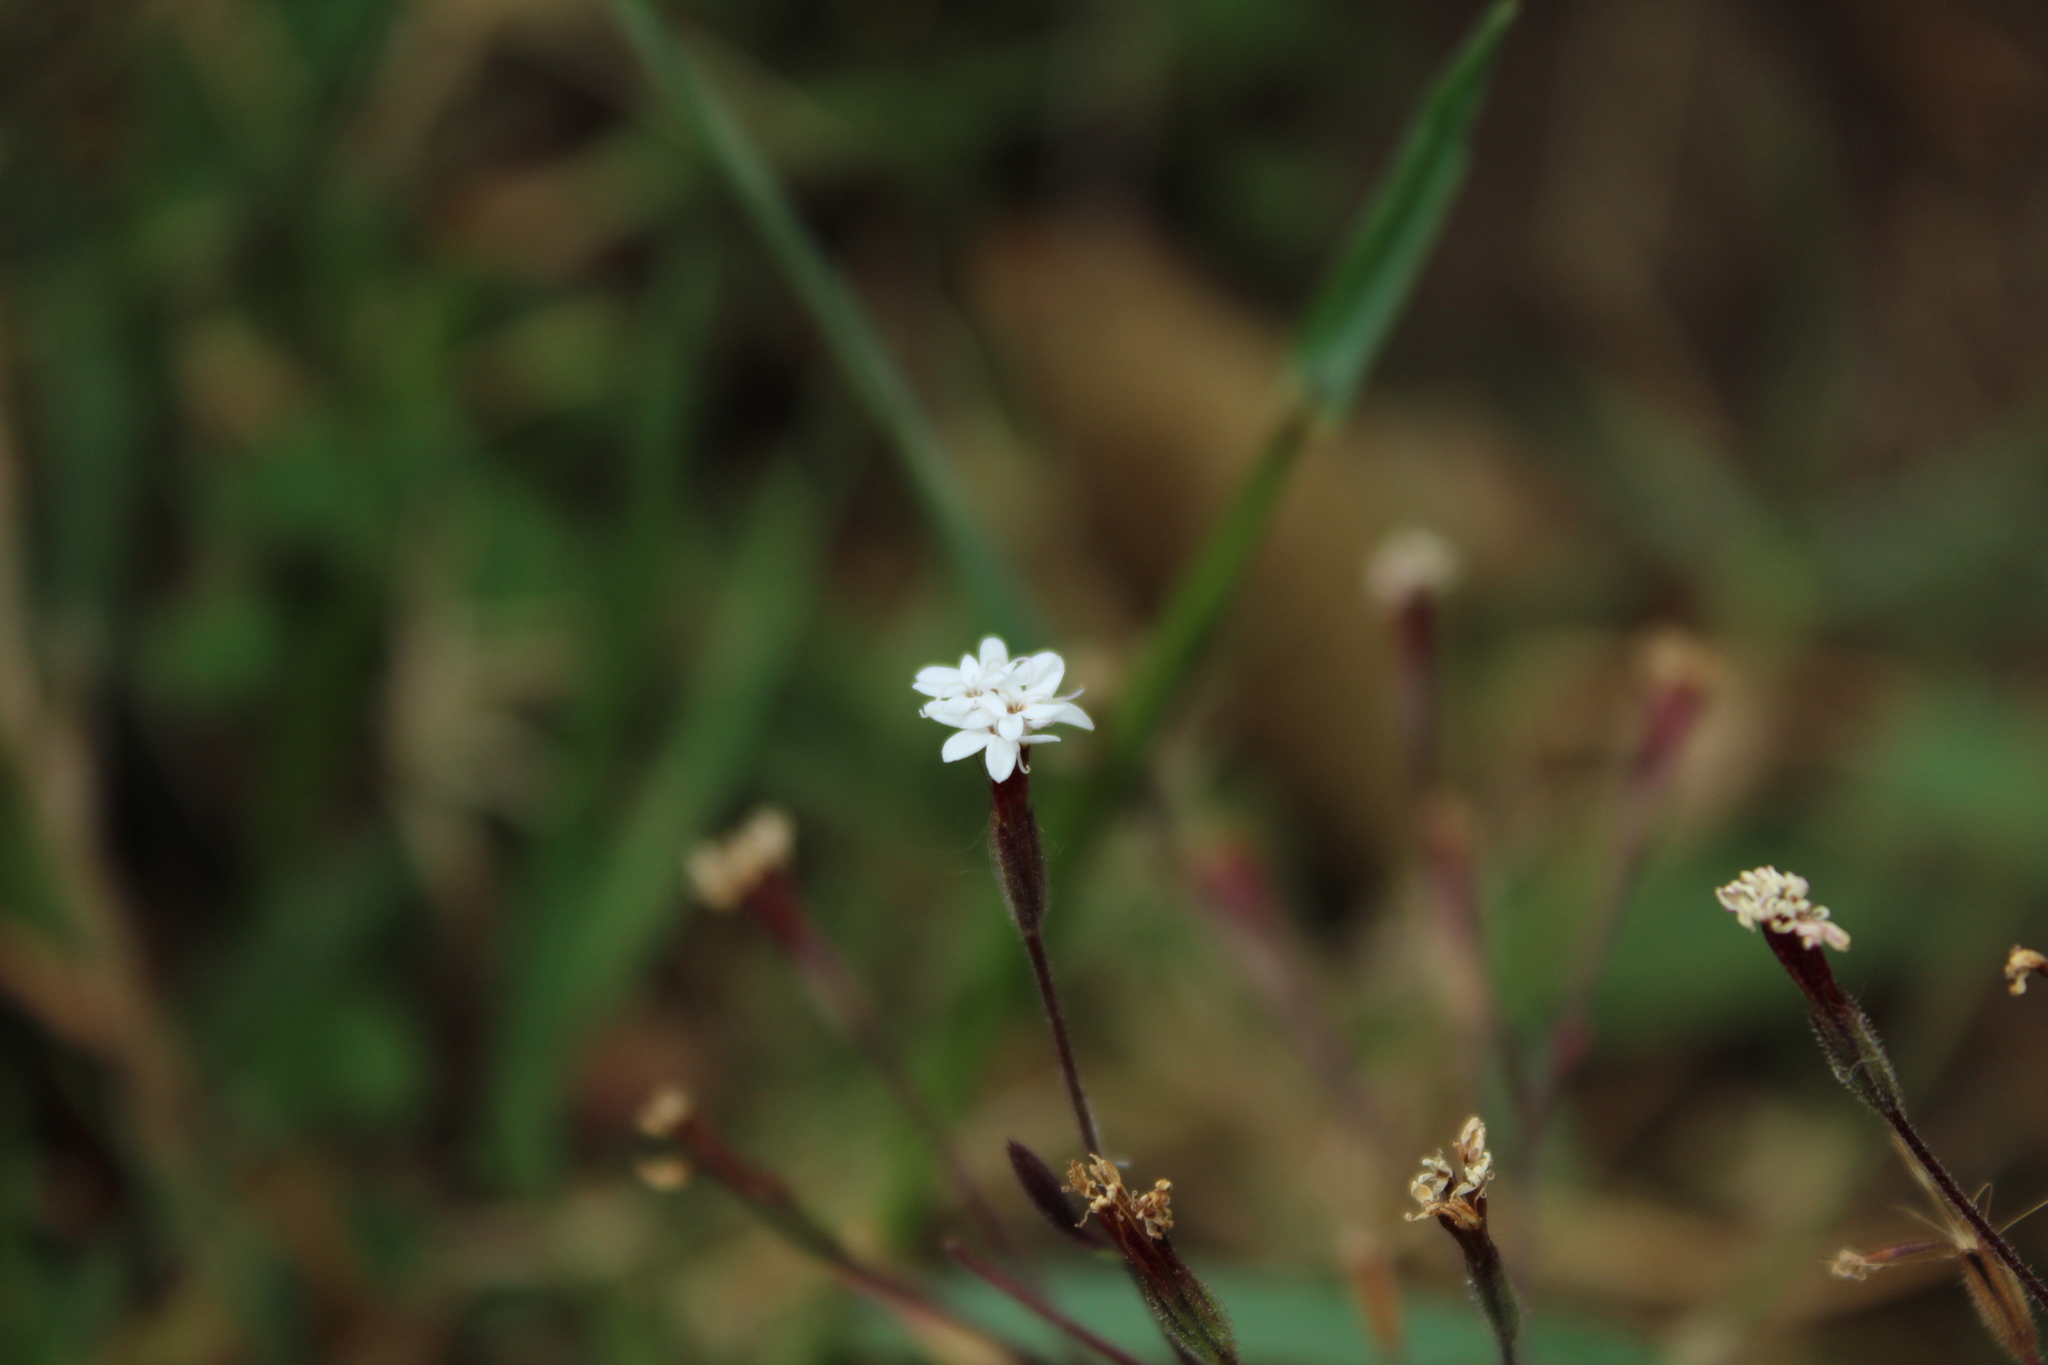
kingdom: Plantae
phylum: Tracheophyta
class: Magnoliopsida
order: Asterales
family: Asteraceae
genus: Stevia
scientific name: Stevia elatior
